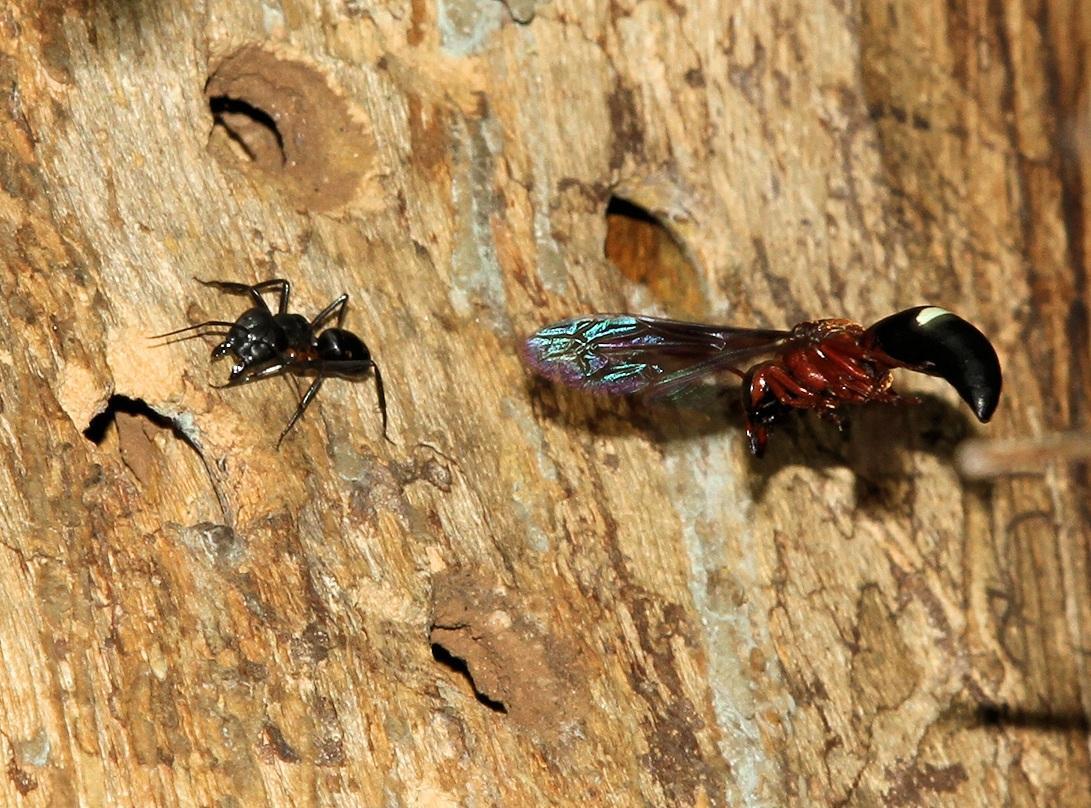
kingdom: Animalia
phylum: Arthropoda
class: Insecta
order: Hymenoptera
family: Formicidae
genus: Camponotus
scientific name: Camponotus sexpunctatus
